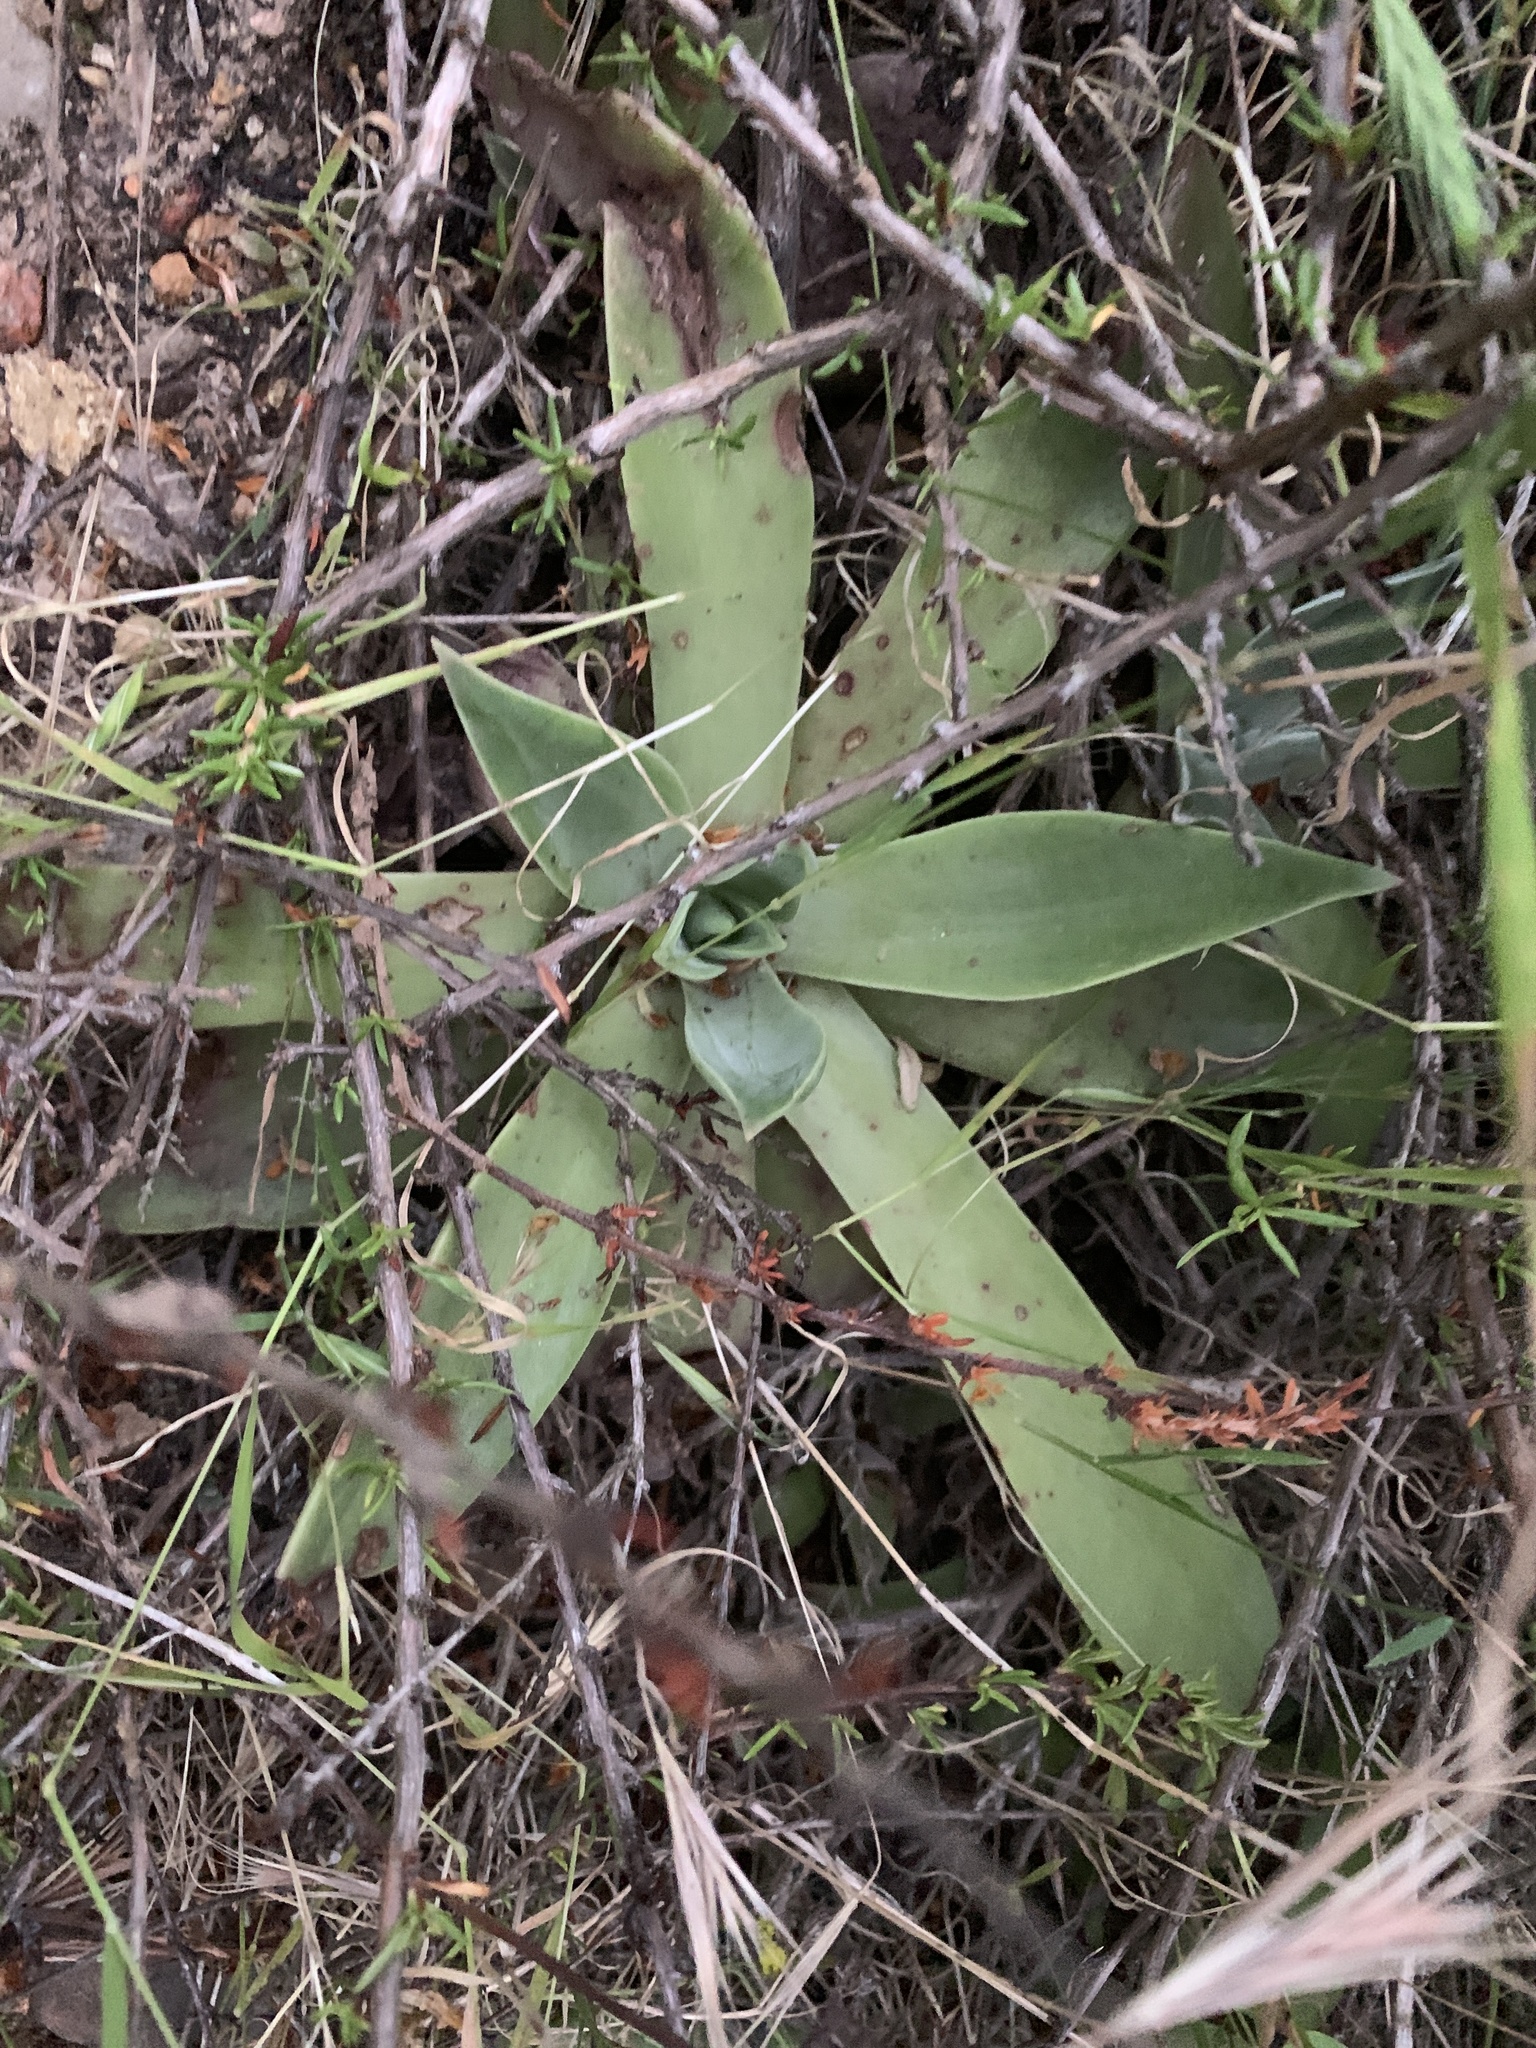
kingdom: Plantae
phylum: Tracheophyta
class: Magnoliopsida
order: Saxifragales
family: Crassulaceae
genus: Dudleya
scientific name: Dudleya lanceolata
